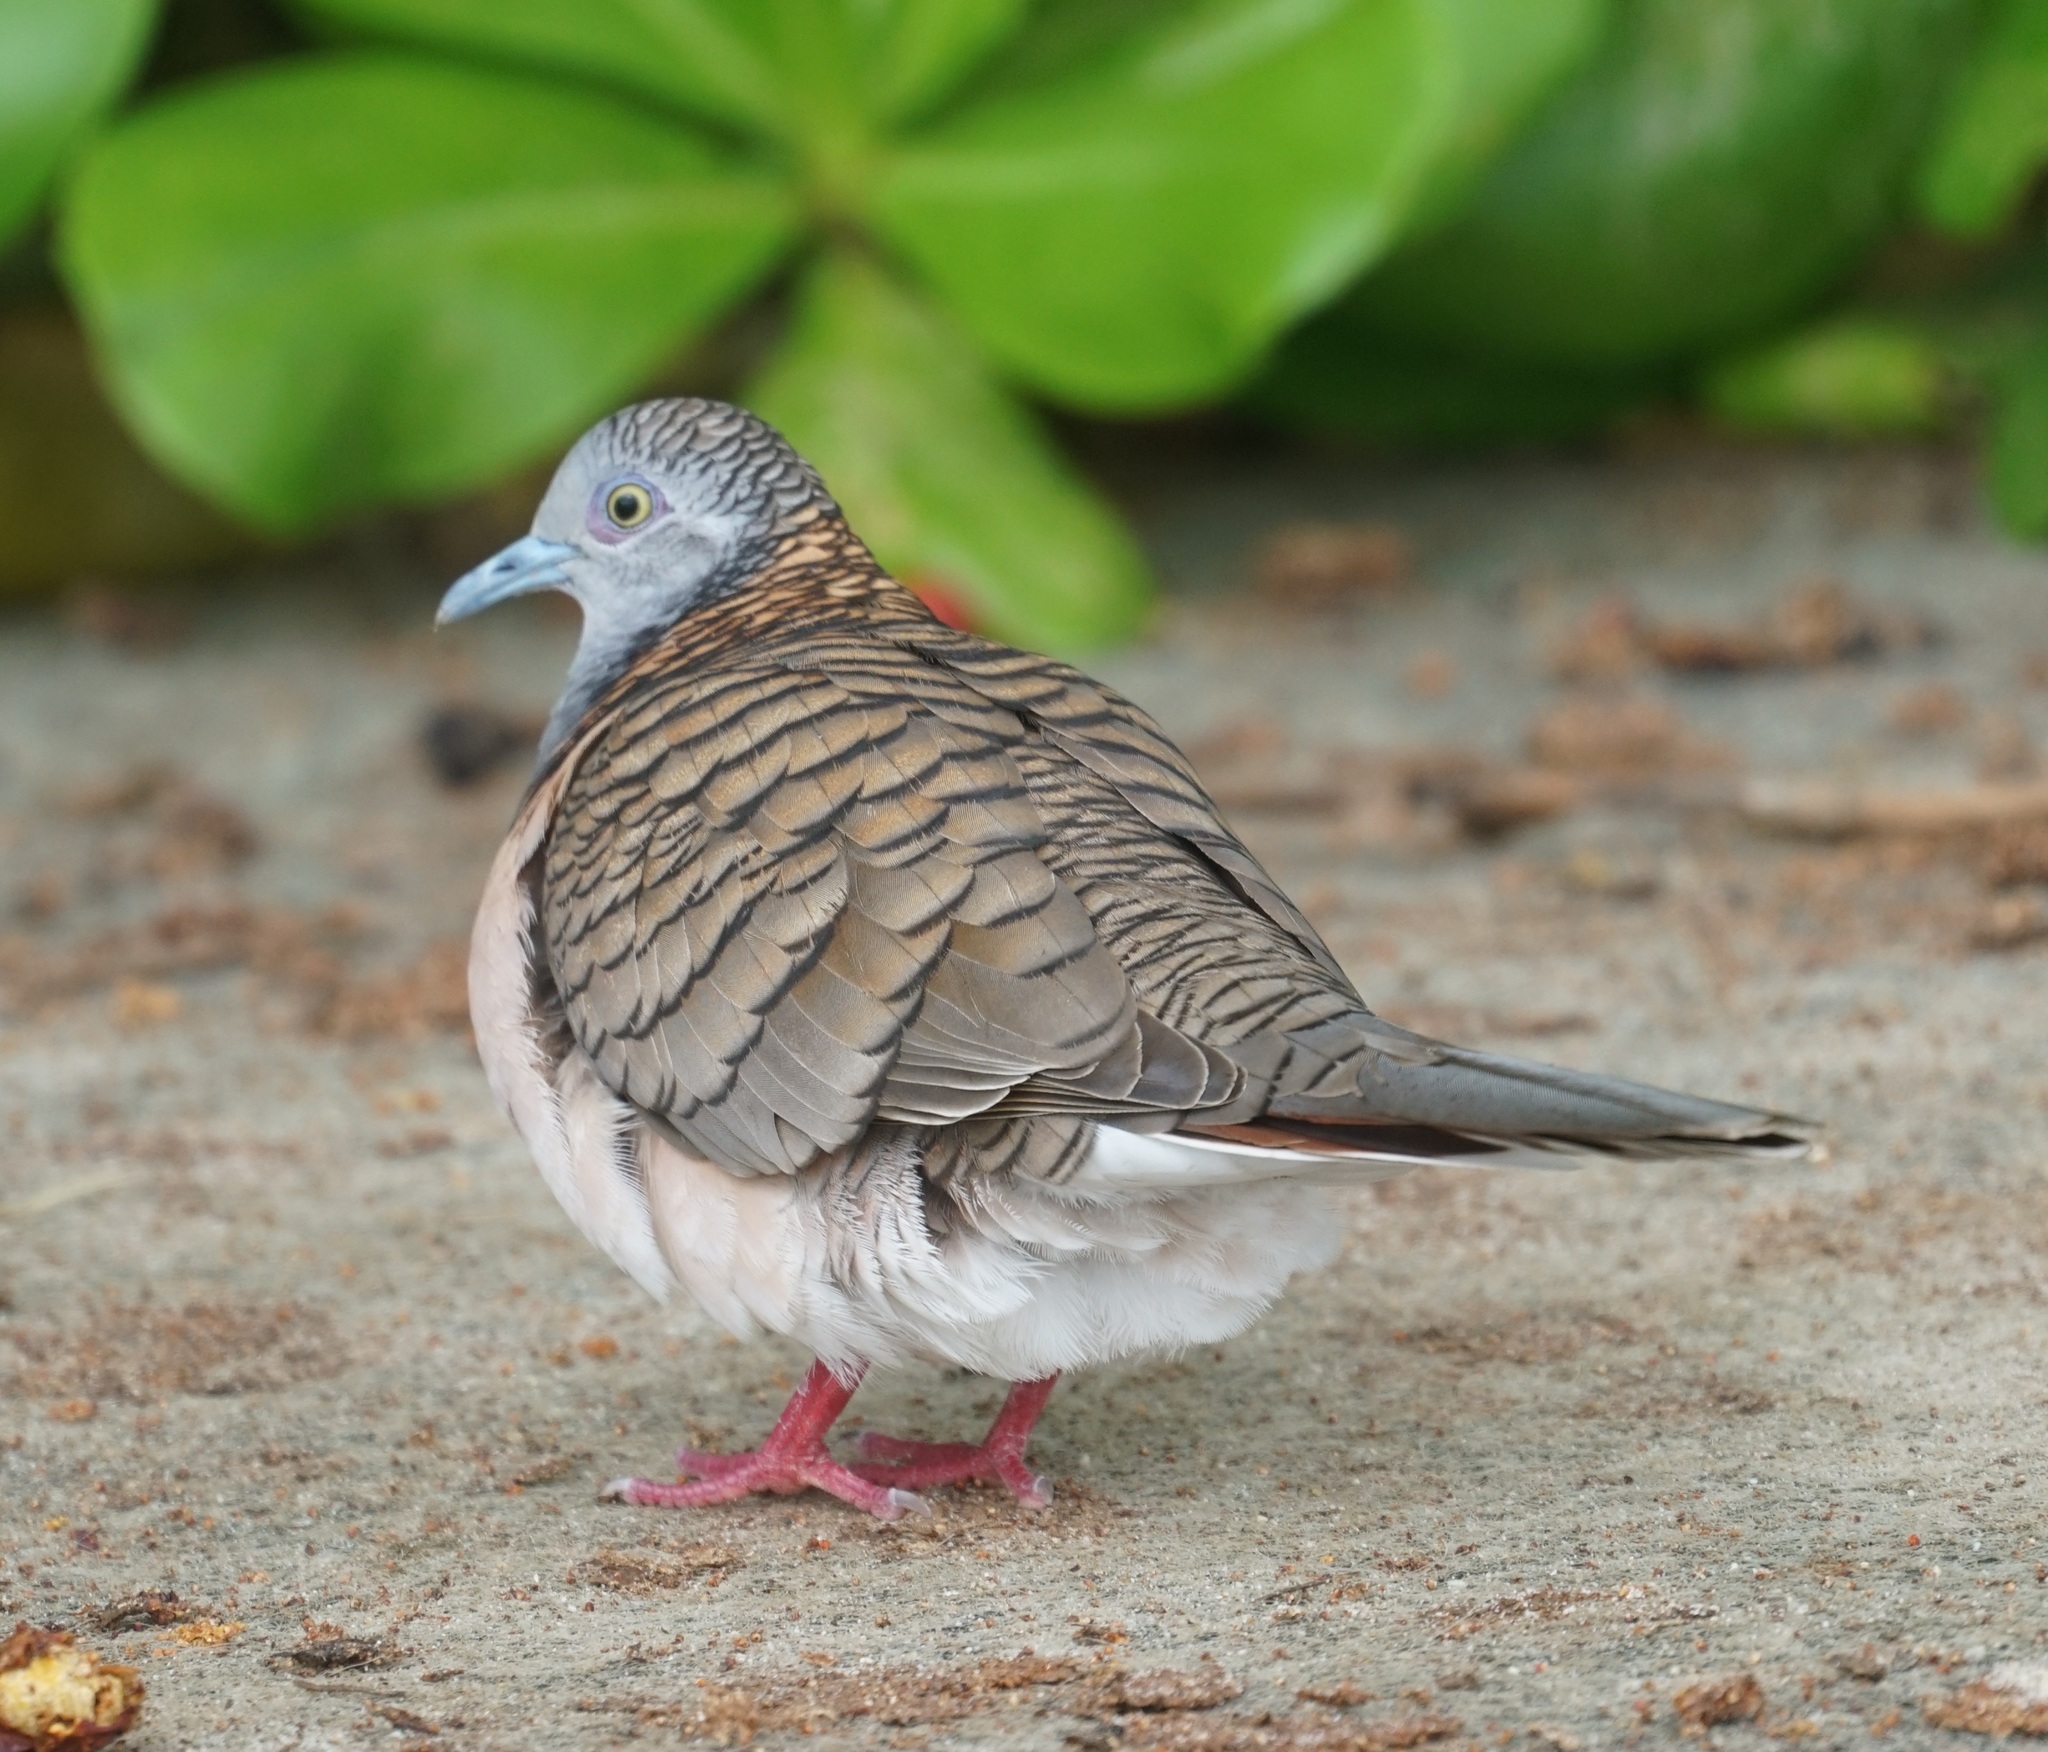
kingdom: Animalia
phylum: Chordata
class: Aves
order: Columbiformes
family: Columbidae
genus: Geopelia
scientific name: Geopelia humeralis
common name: Bar-shouldered dove
